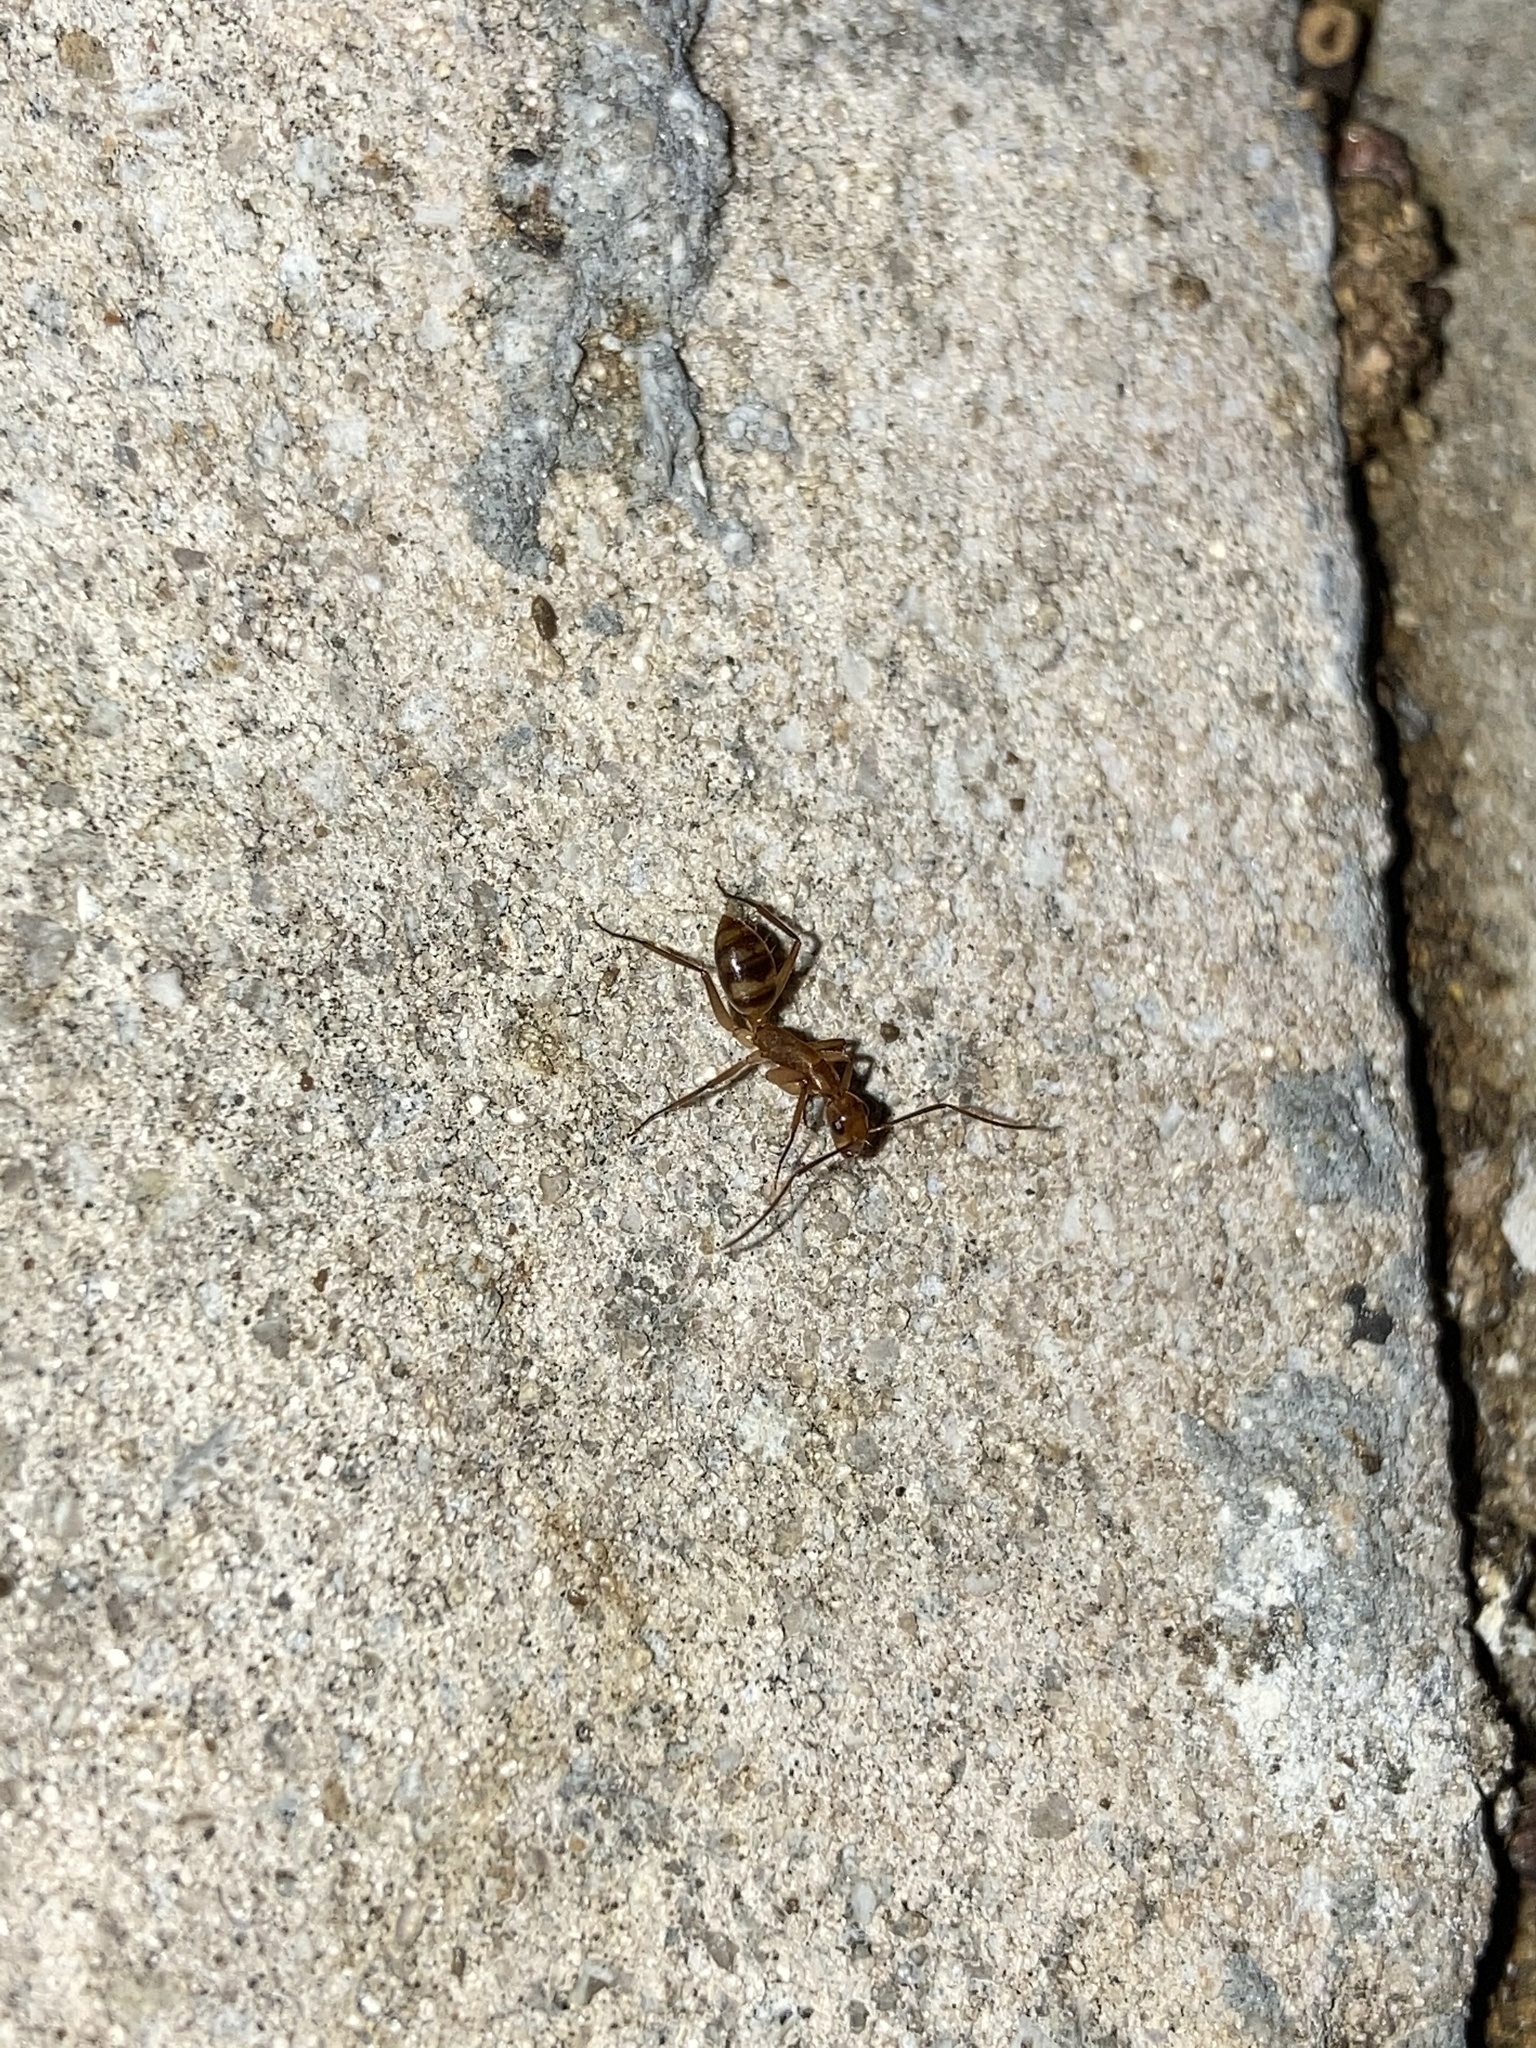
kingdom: Animalia
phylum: Arthropoda
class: Insecta
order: Hymenoptera
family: Formicidae
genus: Camponotus
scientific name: Camponotus
